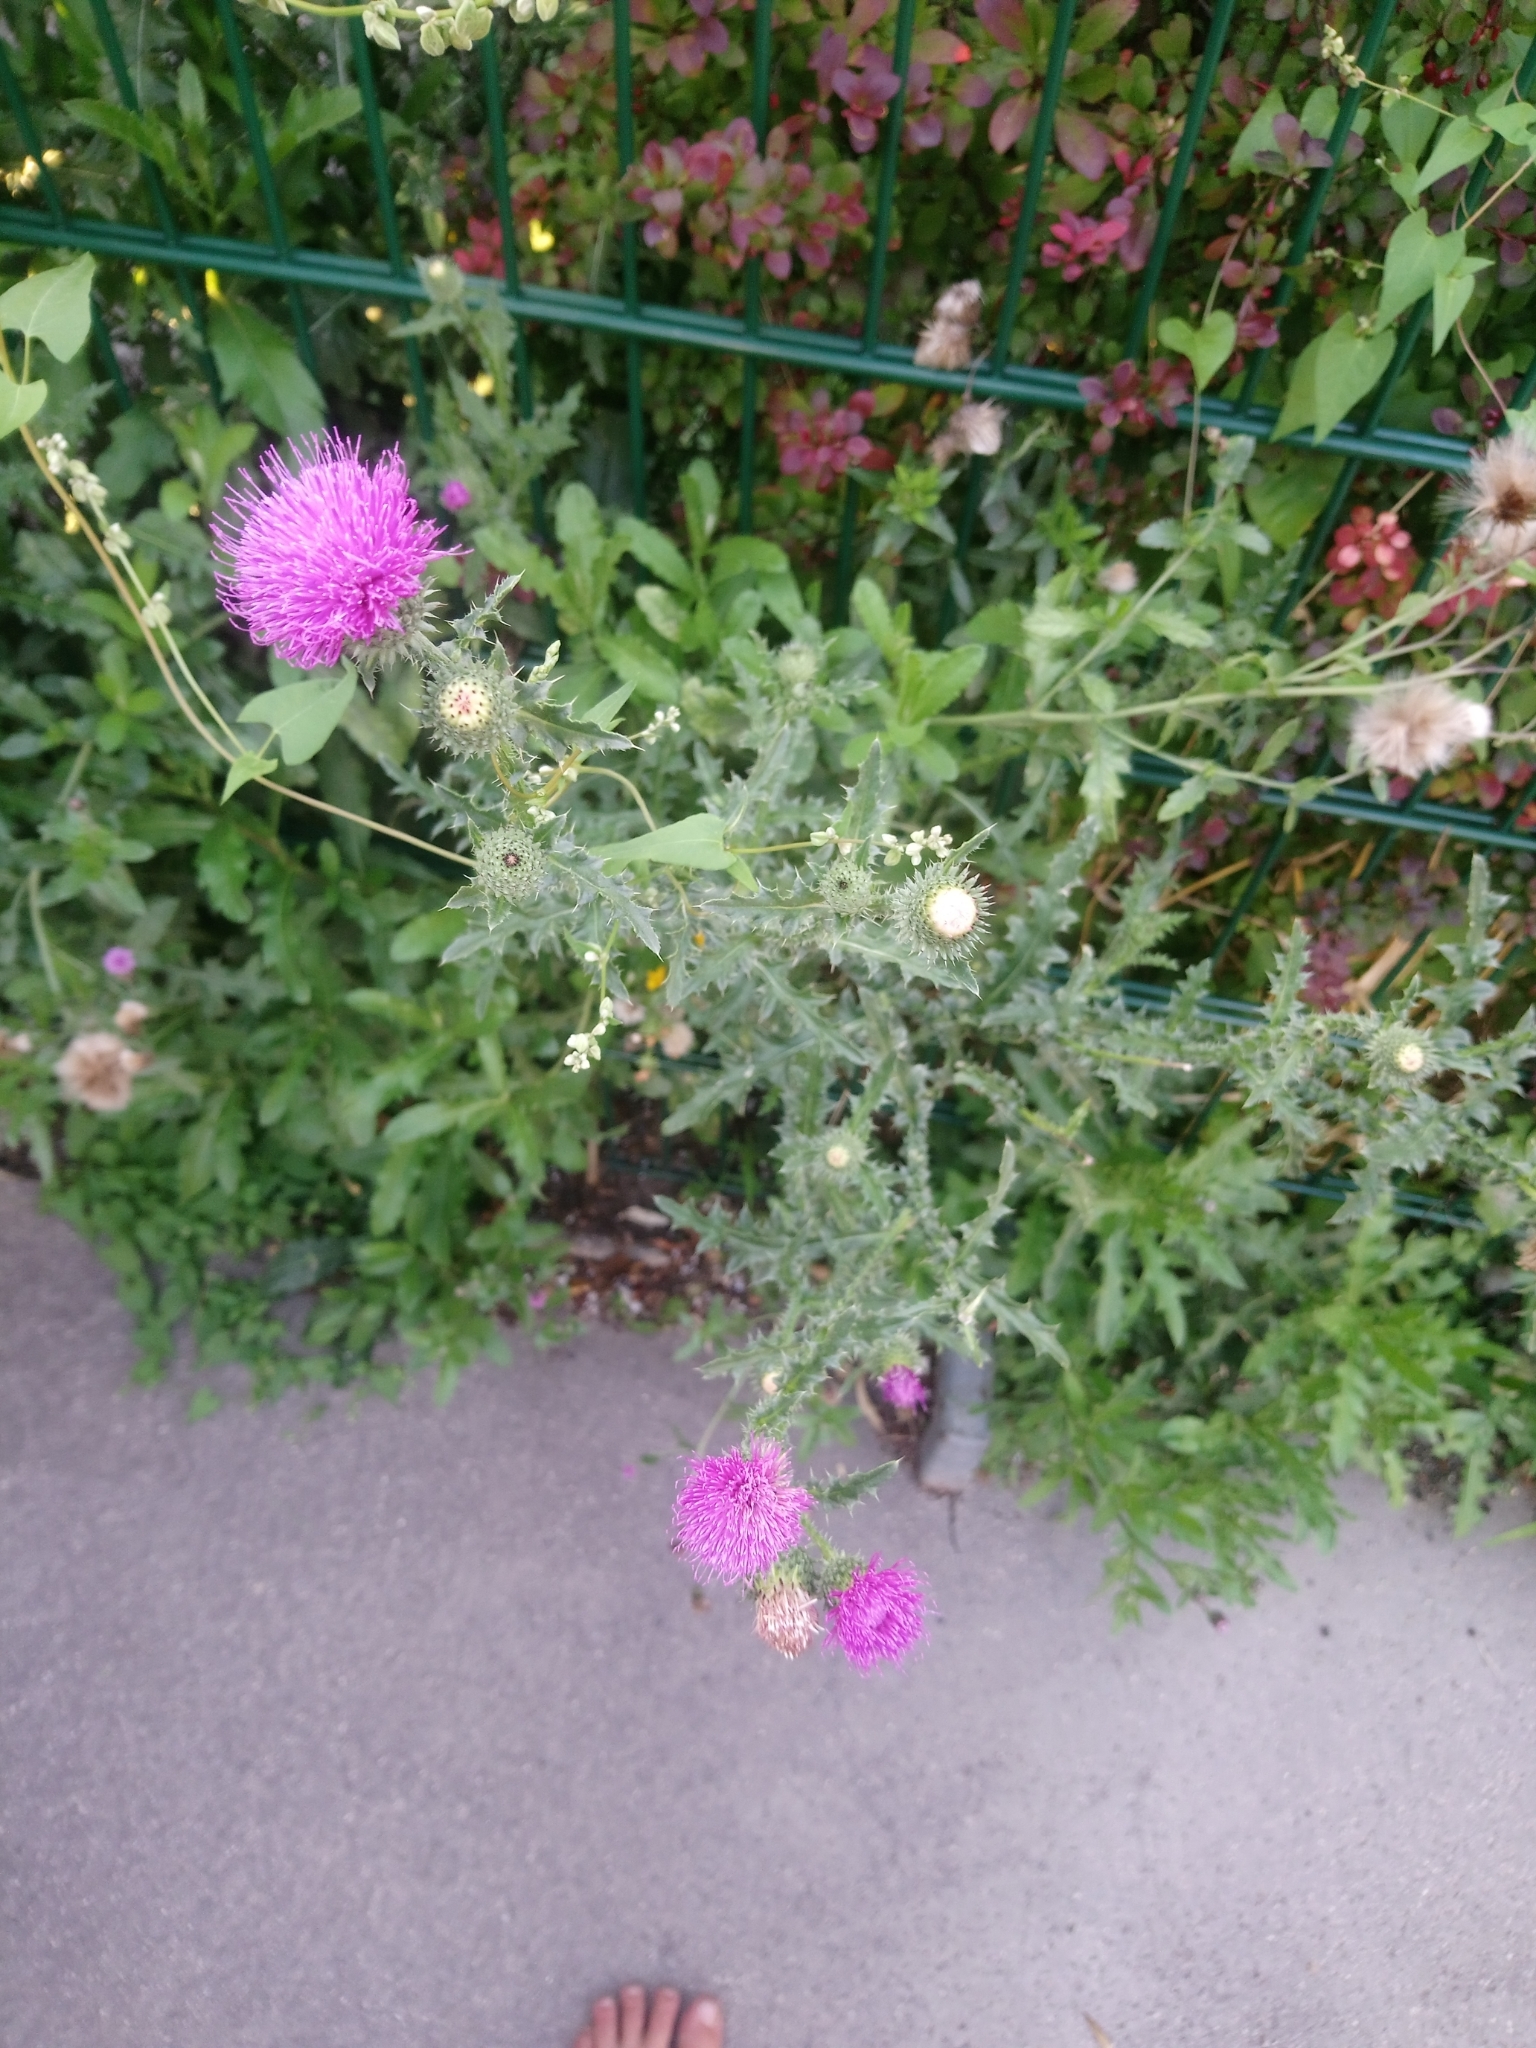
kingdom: Plantae
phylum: Tracheophyta
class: Magnoliopsida
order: Asterales
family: Asteraceae
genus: Carduus
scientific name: Carduus acanthoides
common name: Plumeless thistle
